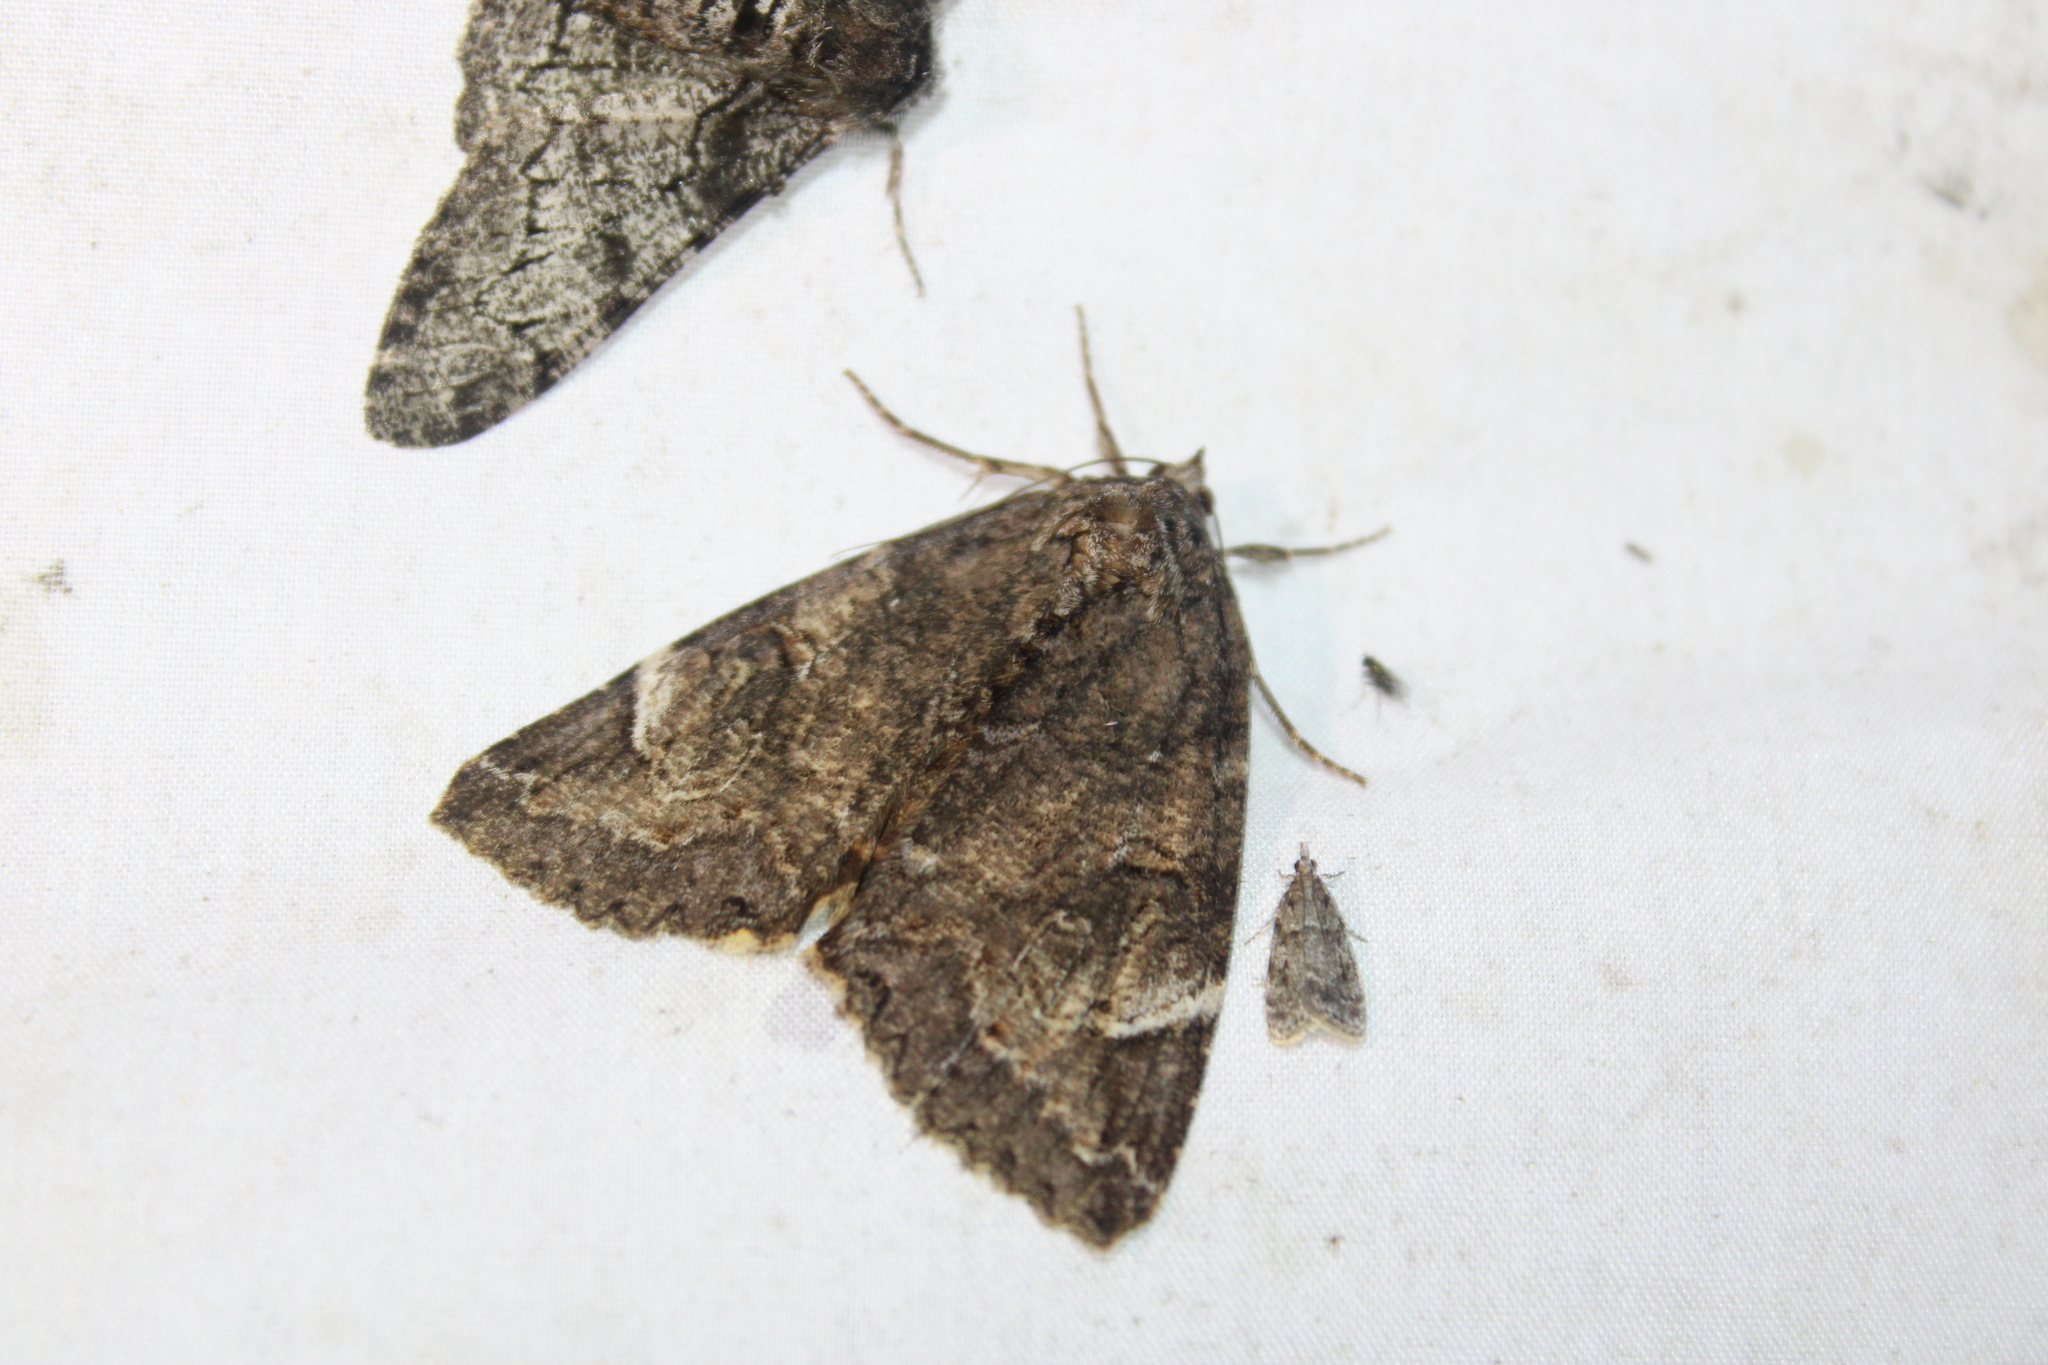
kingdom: Animalia
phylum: Arthropoda
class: Insecta
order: Lepidoptera
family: Erebidae
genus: Euparthenos
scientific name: Euparthenos nubilis
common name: Locust underwing
